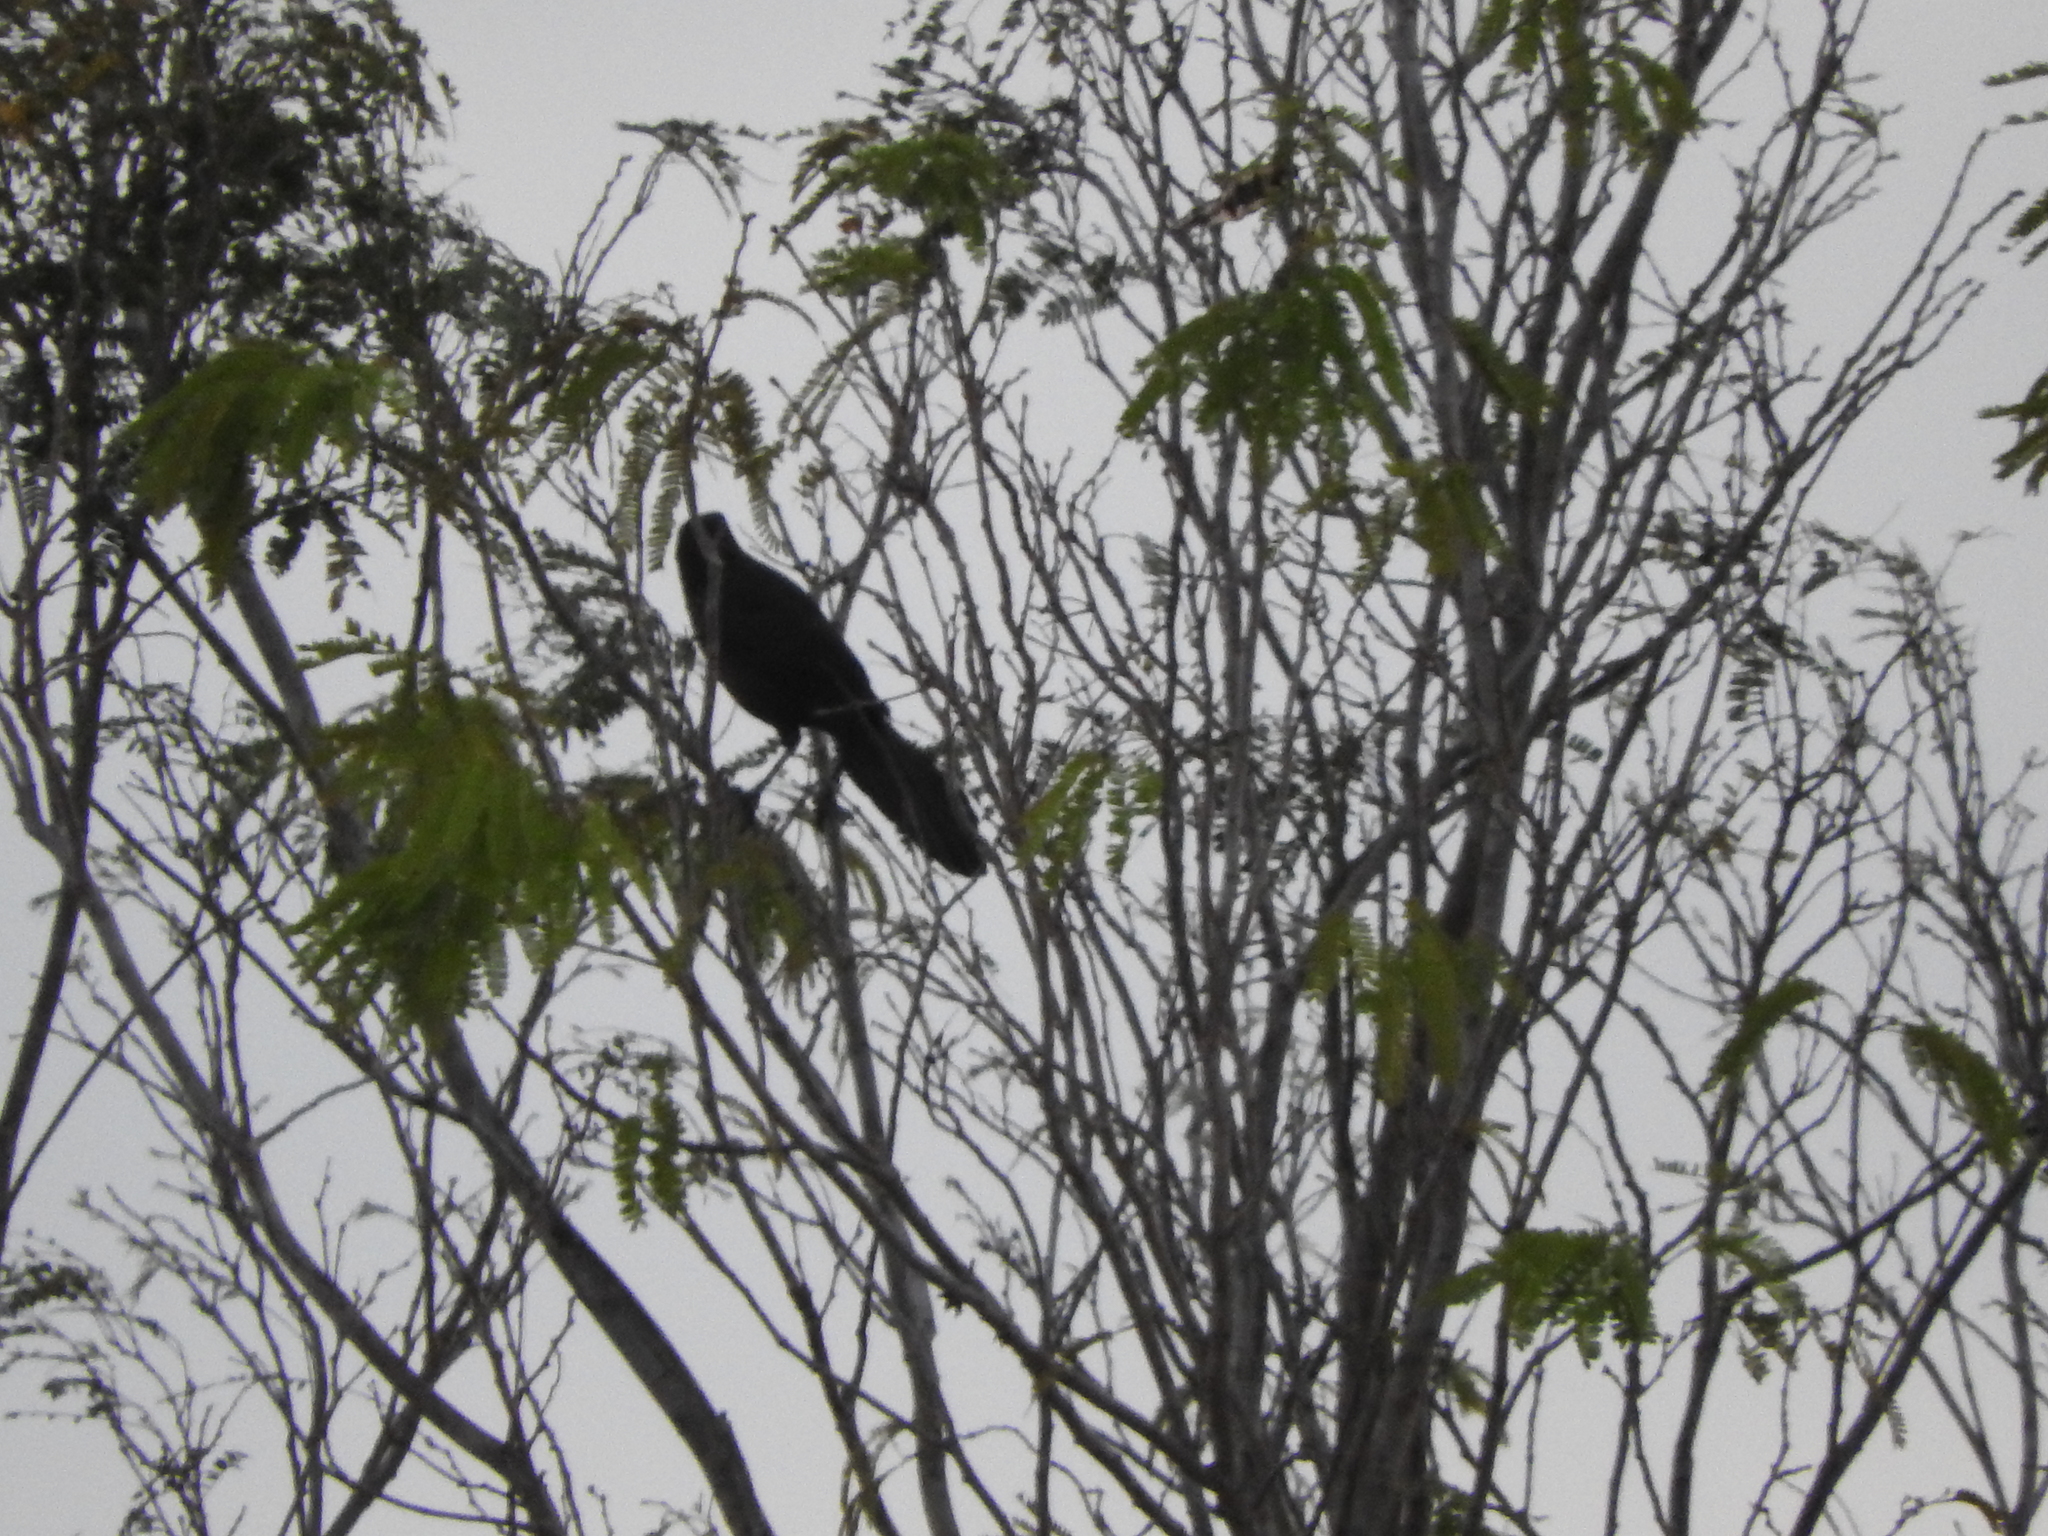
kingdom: Animalia
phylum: Chordata
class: Aves
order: Passeriformes
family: Icteridae
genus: Quiscalus
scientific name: Quiscalus mexicanus
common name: Great-tailed grackle
